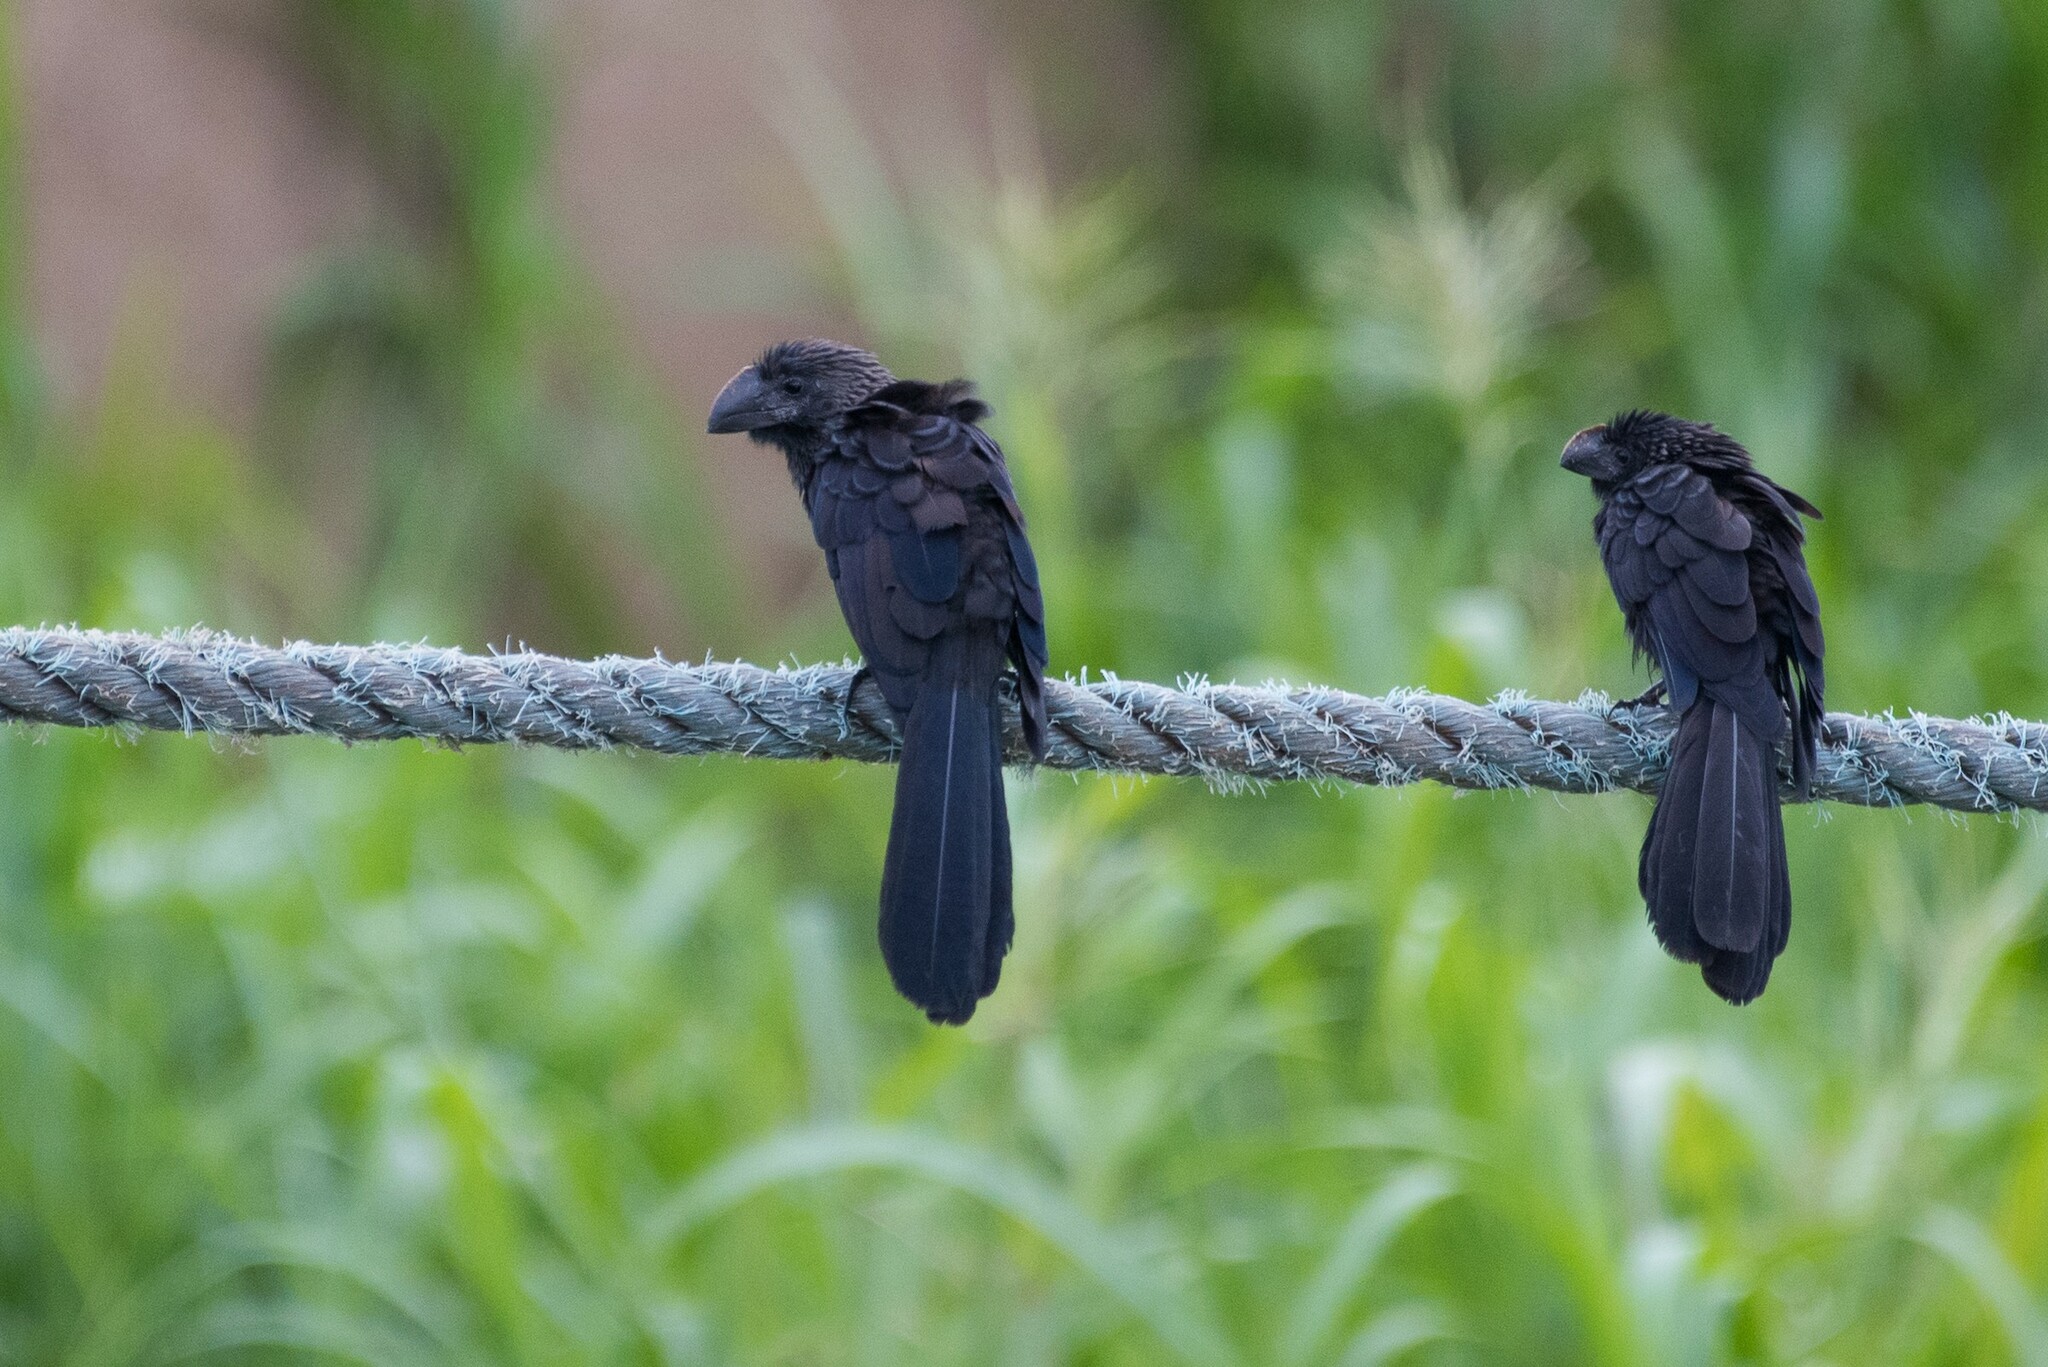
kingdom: Animalia
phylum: Chordata
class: Aves
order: Cuculiformes
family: Cuculidae
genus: Crotophaga
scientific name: Crotophaga ani
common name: Smooth-billed ani
